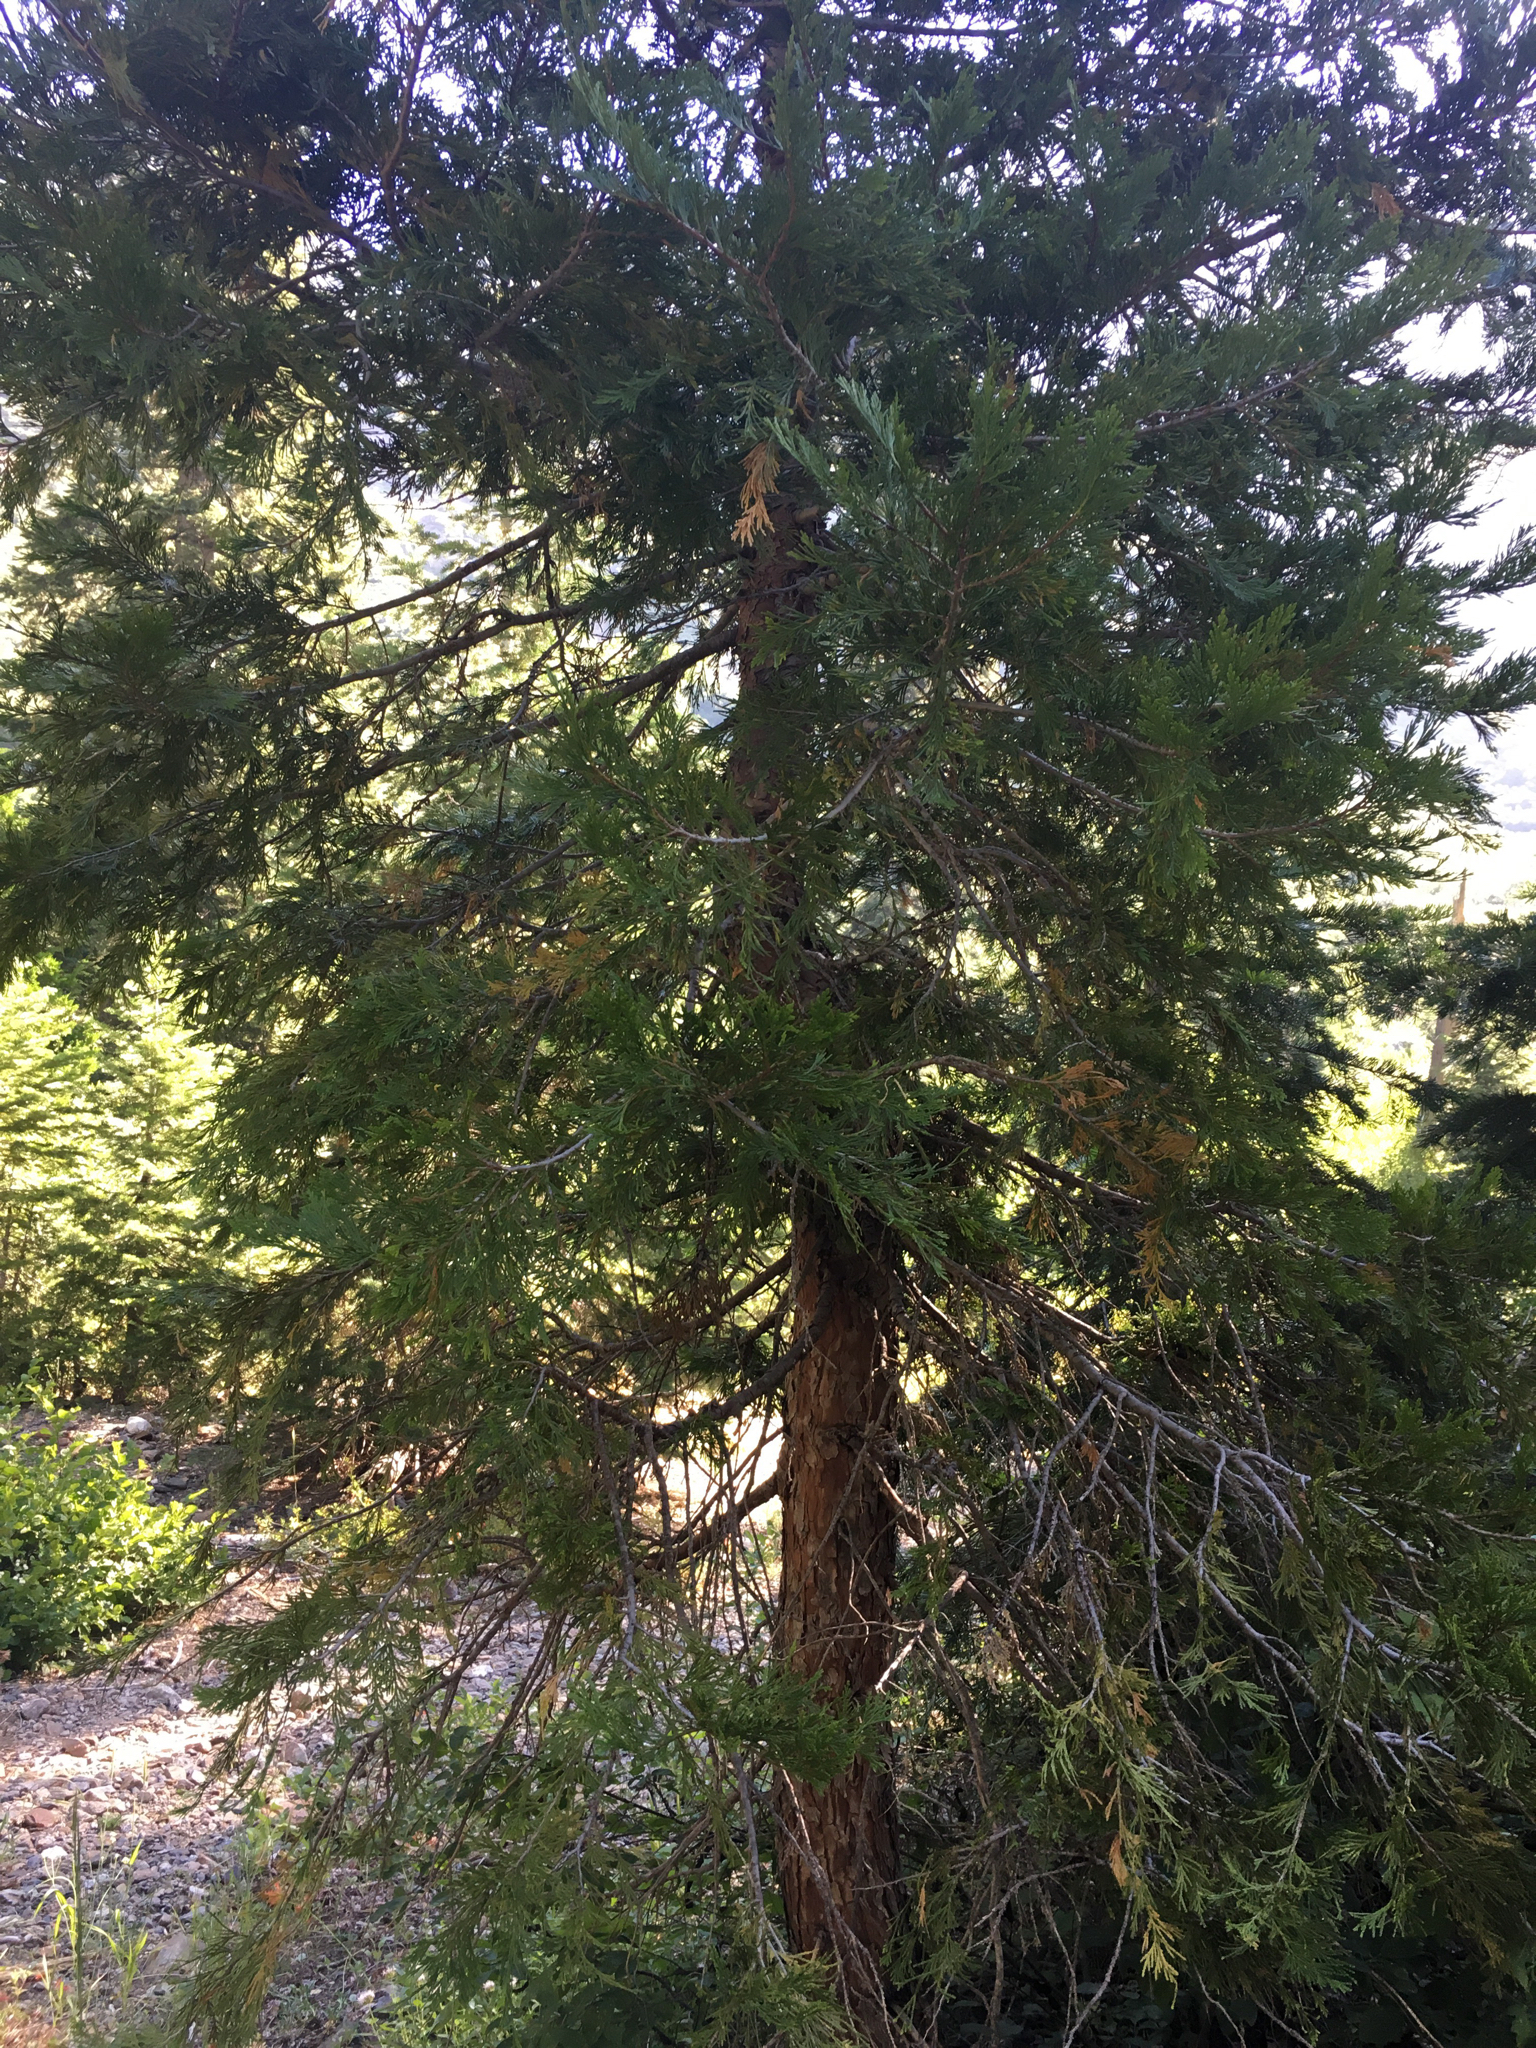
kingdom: Plantae
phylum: Tracheophyta
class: Pinopsida
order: Pinales
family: Cupressaceae
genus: Calocedrus
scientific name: Calocedrus decurrens
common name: Californian incense-cedar
